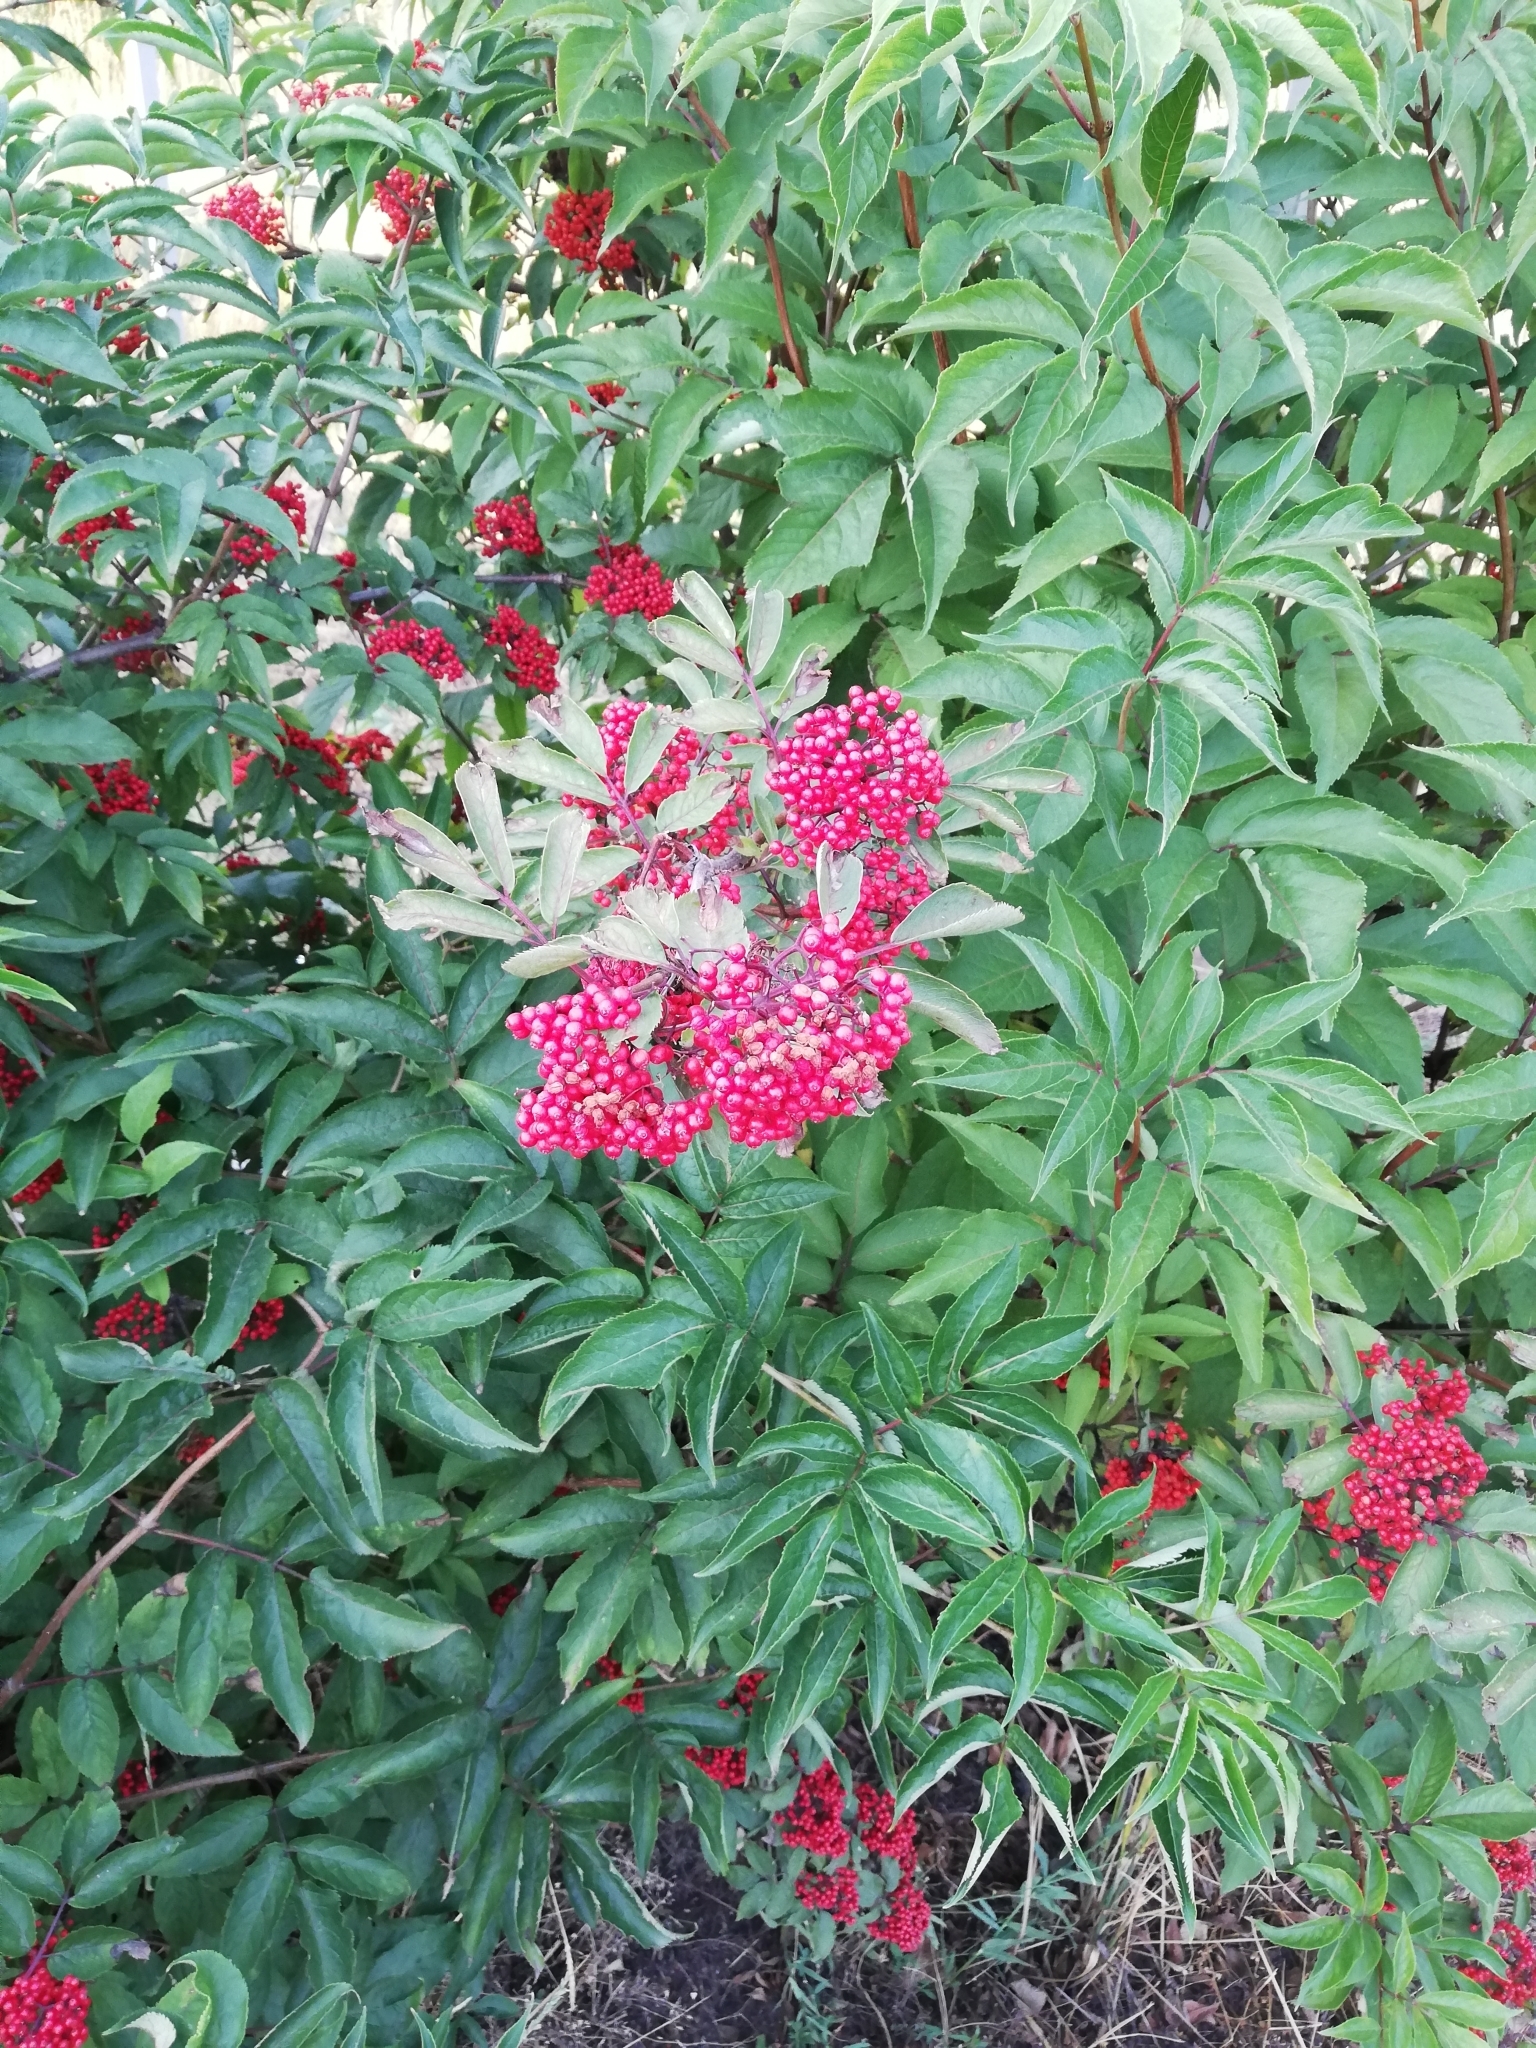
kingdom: Plantae
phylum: Tracheophyta
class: Magnoliopsida
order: Dipsacales
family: Viburnaceae
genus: Sambucus
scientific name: Sambucus racemosa
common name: Red-berried elder
